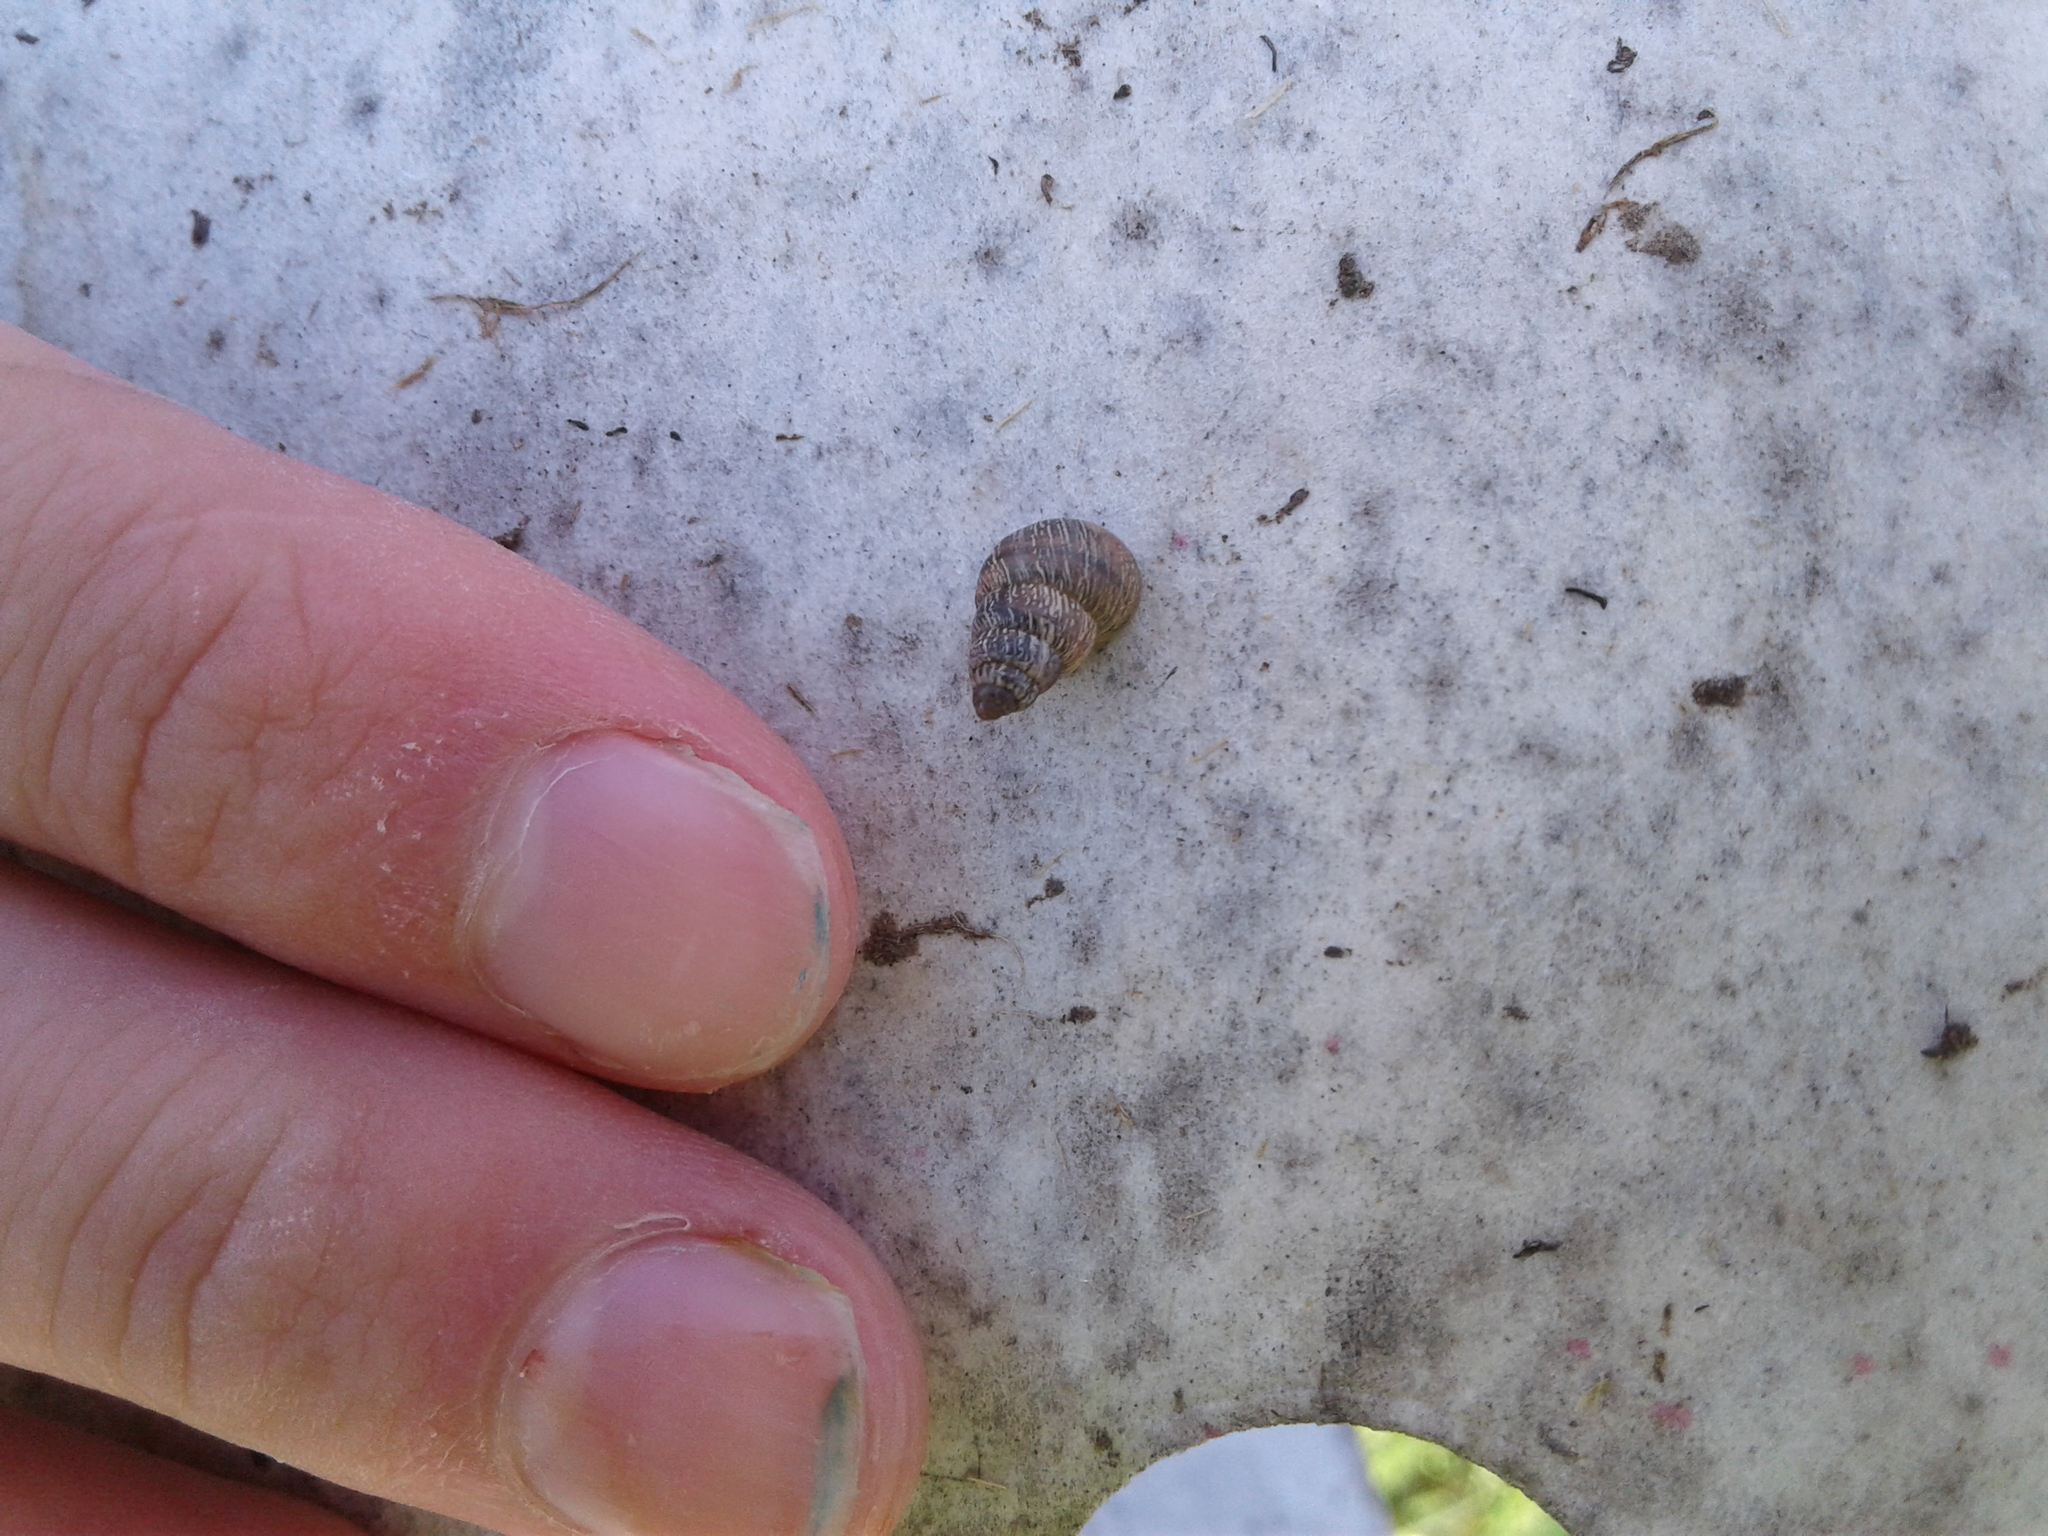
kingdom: Animalia
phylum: Mollusca
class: Gastropoda
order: Stylommatophora
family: Geomitridae
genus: Cochlicella
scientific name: Cochlicella barbara
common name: Potbellied helicellid
